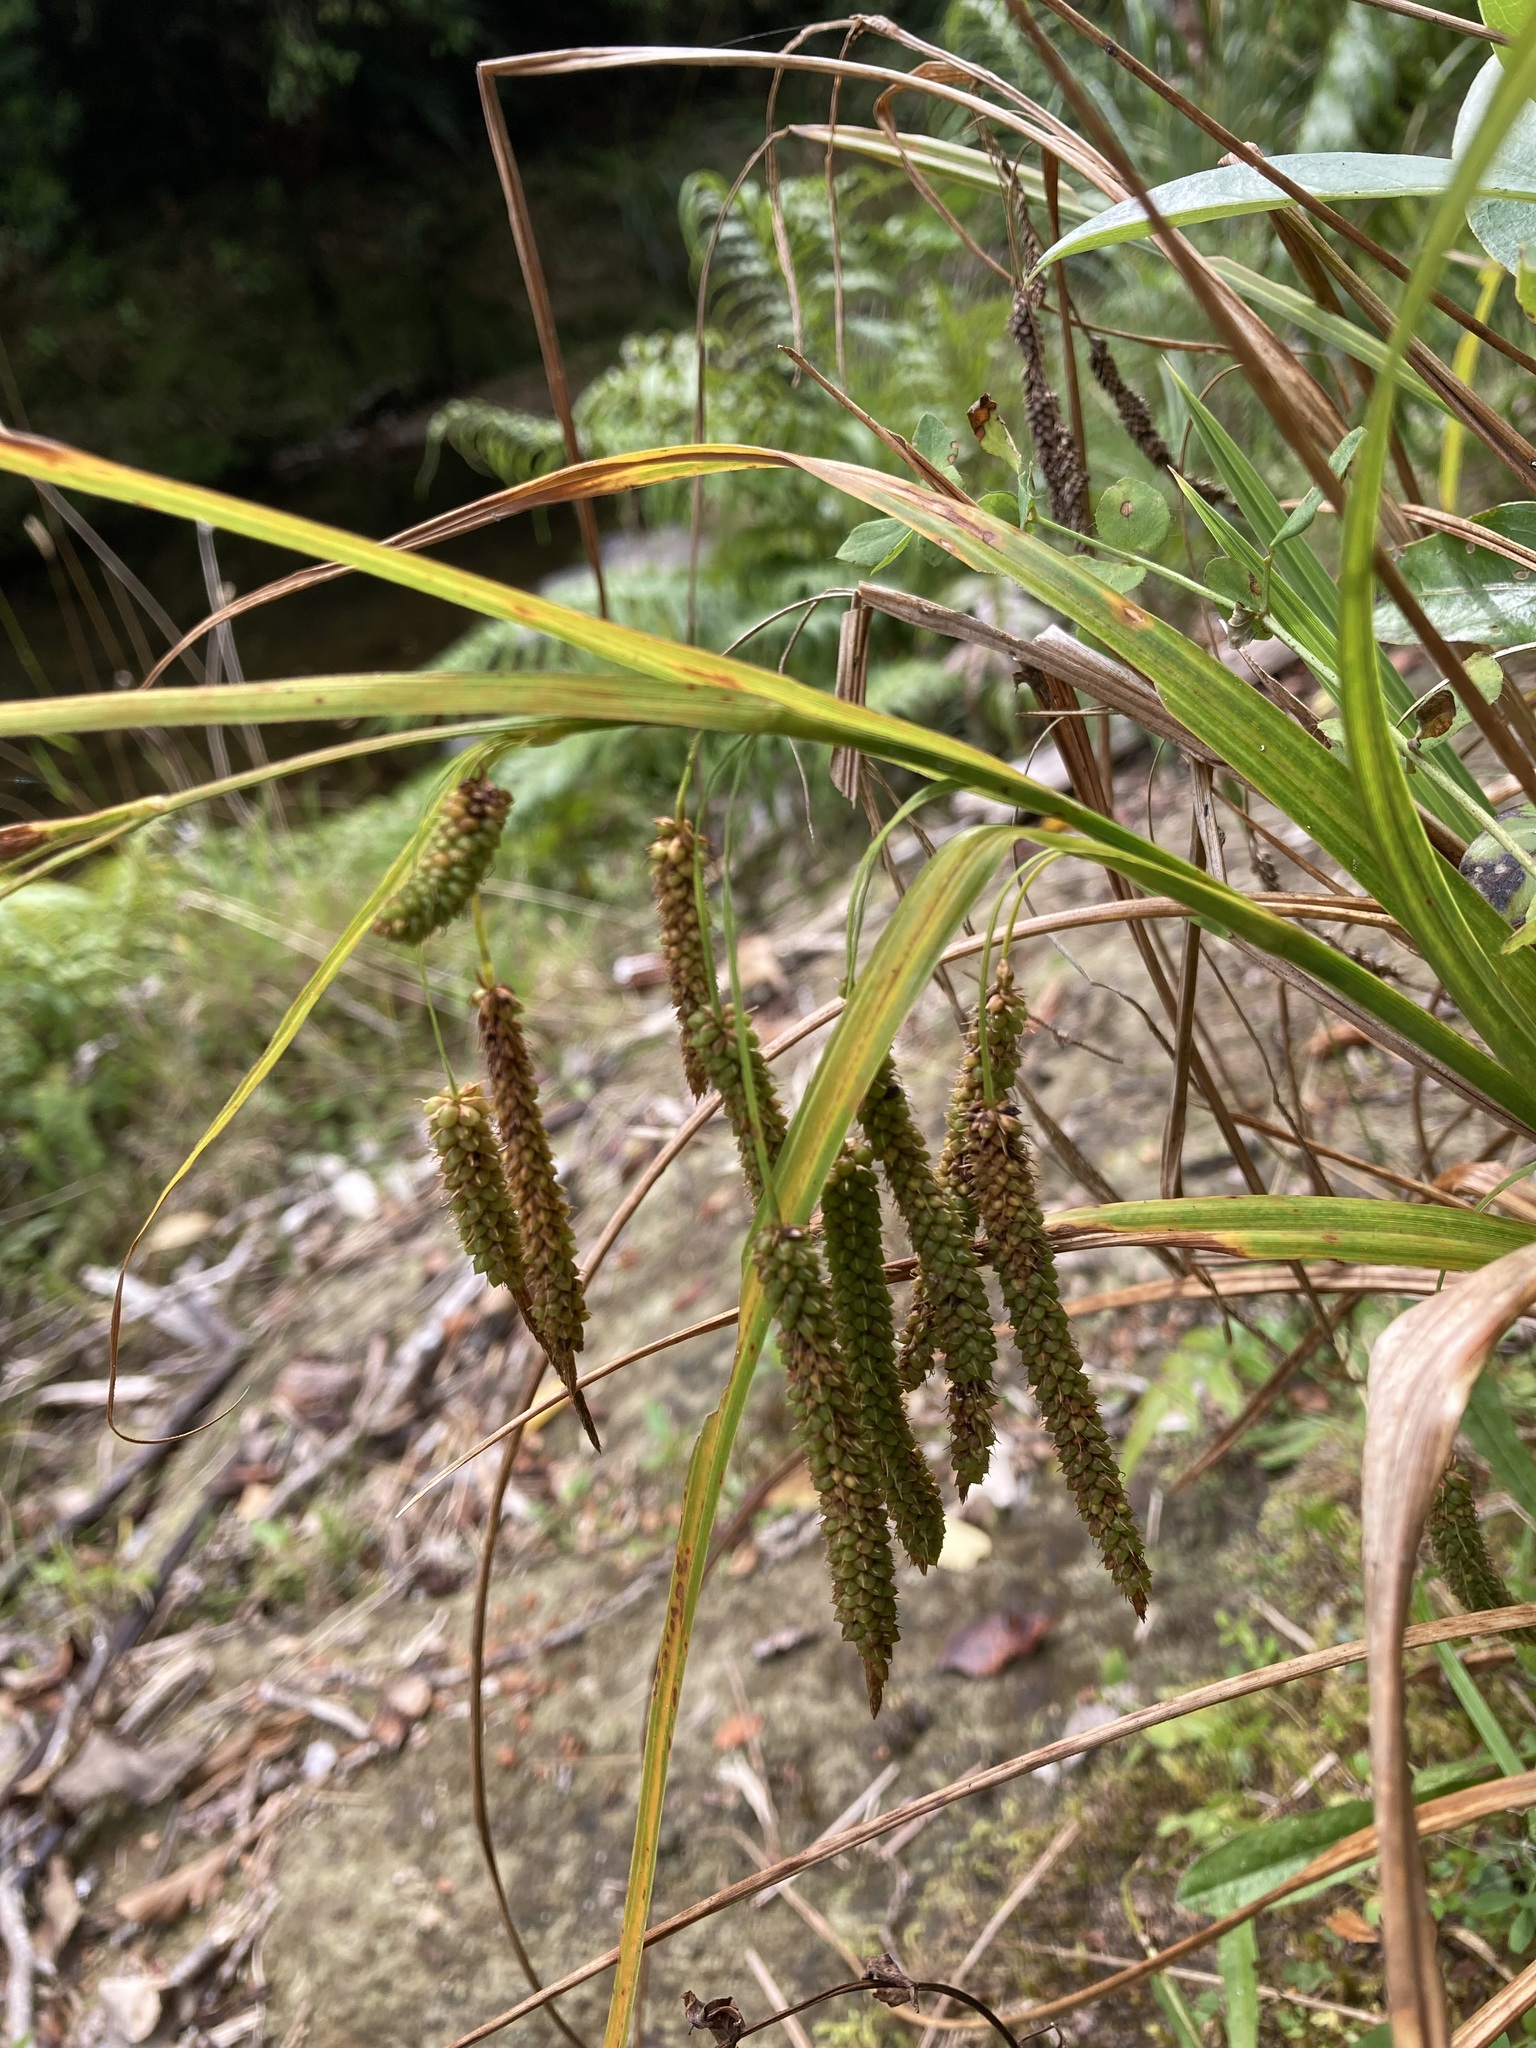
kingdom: Plantae
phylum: Tracheophyta
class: Liliopsida
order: Poales
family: Cyperaceae
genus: Carex
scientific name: Carex geminata
